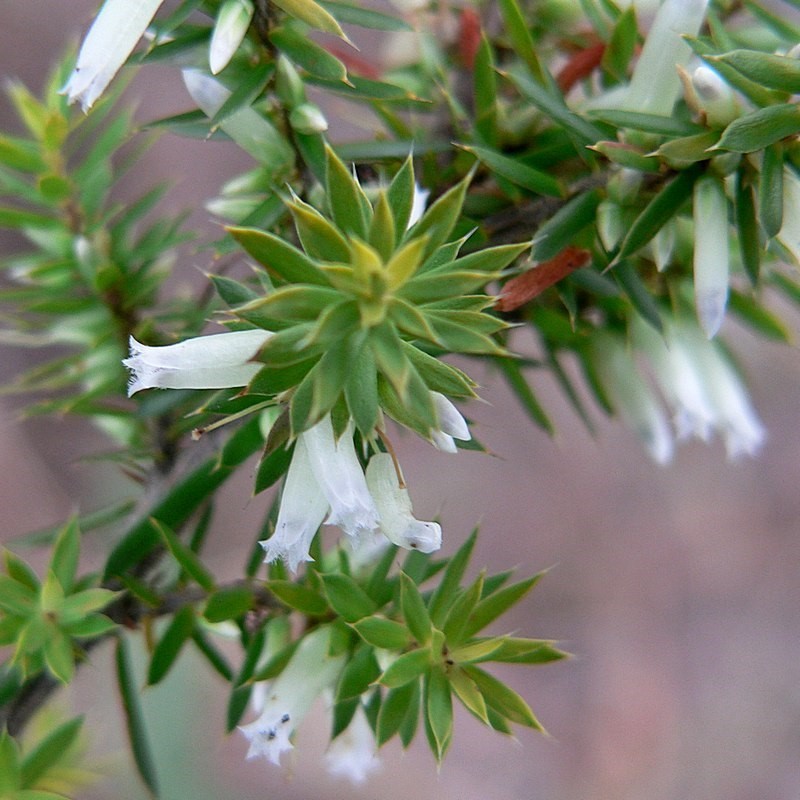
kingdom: Plantae
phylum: Tracheophyta
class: Magnoliopsida
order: Ericales
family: Ericaceae
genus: Styphelia
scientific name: Styphelia sieberi
